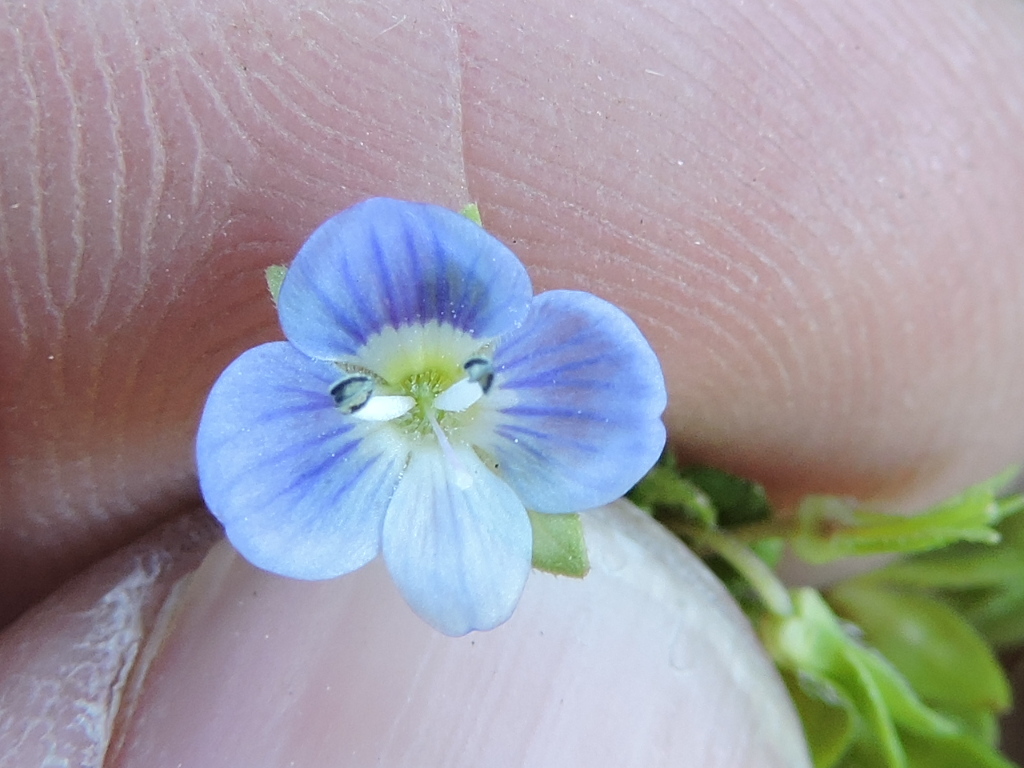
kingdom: Plantae
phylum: Tracheophyta
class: Magnoliopsida
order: Lamiales
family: Plantaginaceae
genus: Veronica
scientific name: Veronica persica
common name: Common field-speedwell
